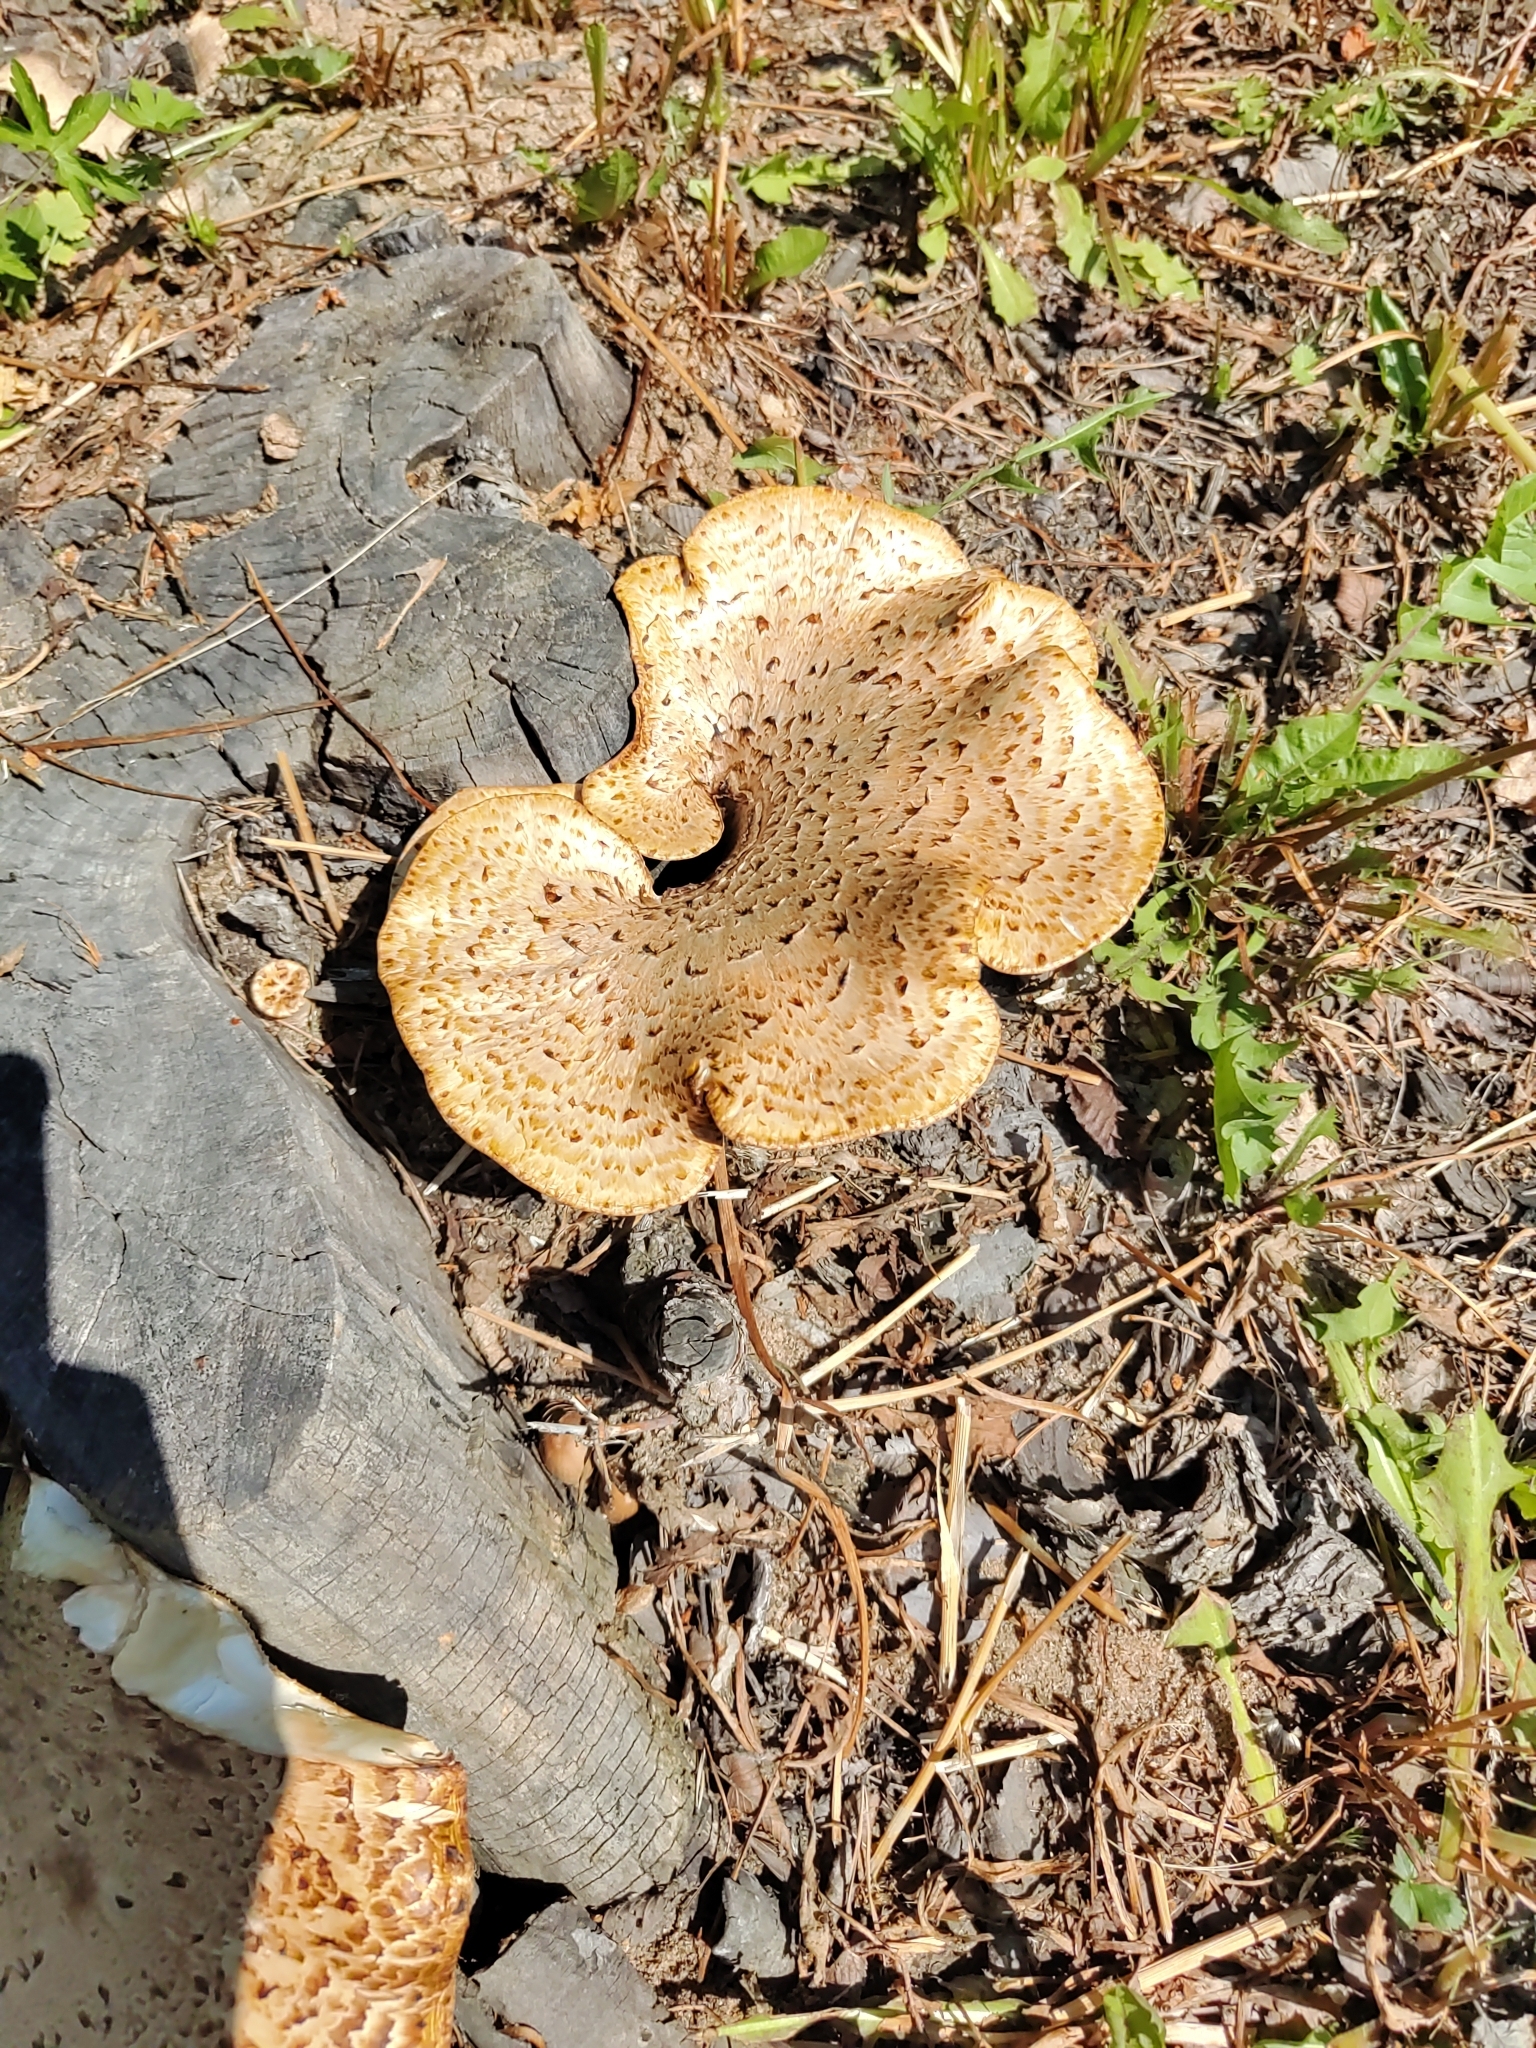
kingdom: Fungi
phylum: Basidiomycota
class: Agaricomycetes
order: Polyporales
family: Polyporaceae
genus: Cerioporus
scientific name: Cerioporus squamosus
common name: Dryad's saddle
